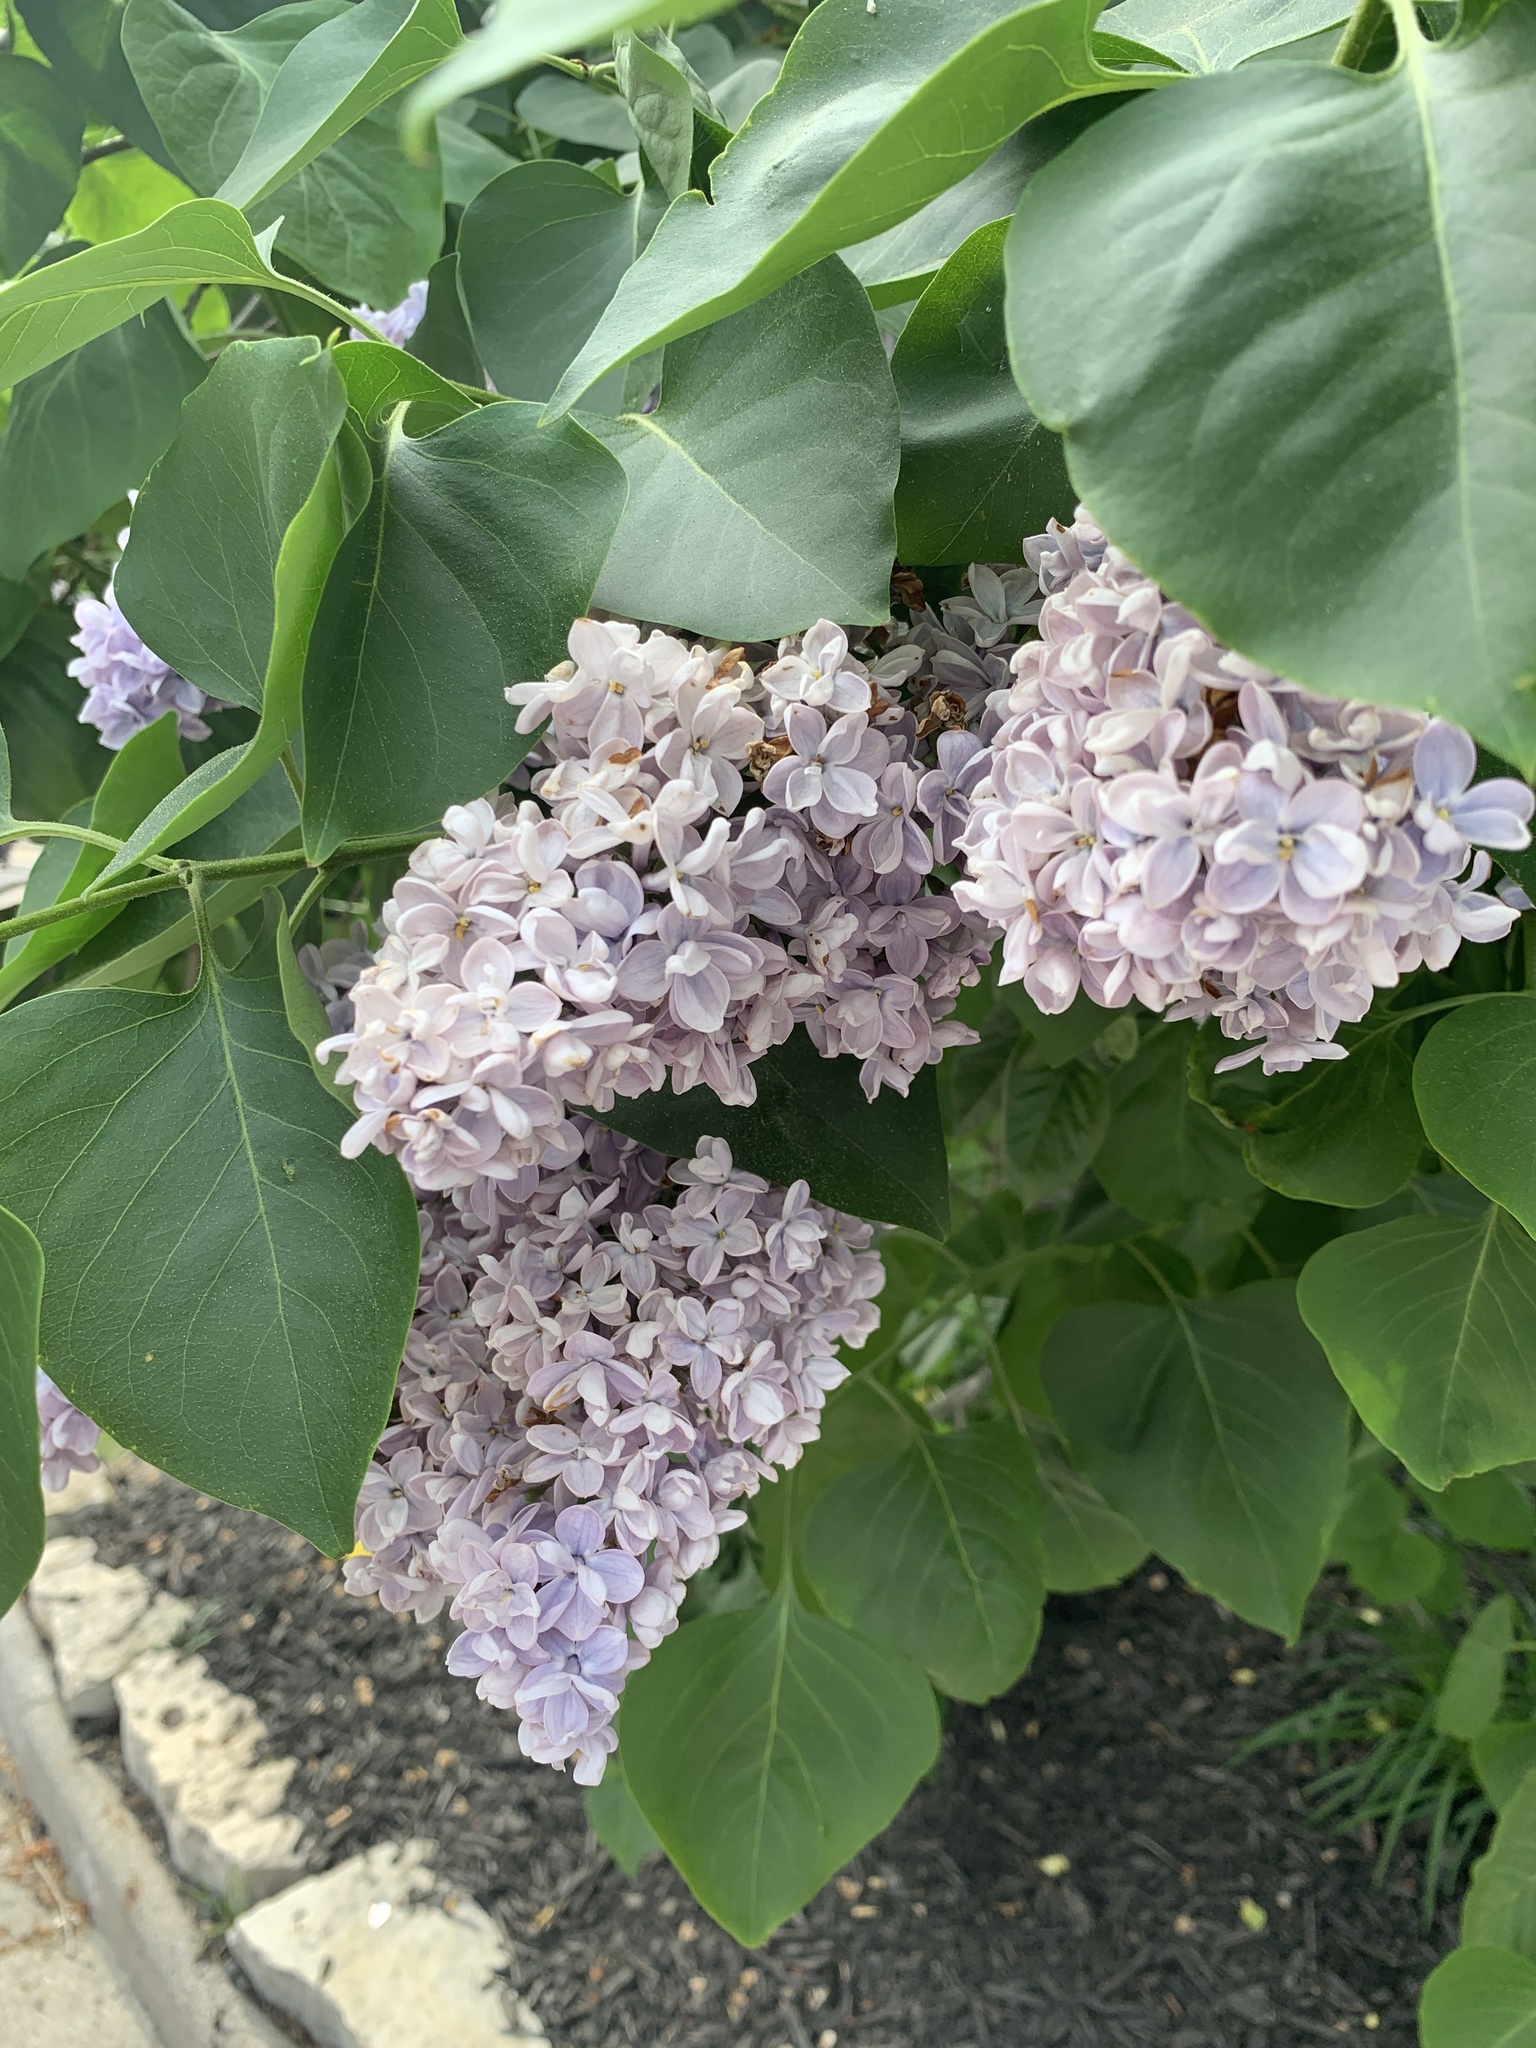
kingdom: Plantae
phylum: Tracheophyta
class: Magnoliopsida
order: Lamiales
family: Oleaceae
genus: Syringa
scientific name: Syringa vulgaris
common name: Common lilac
